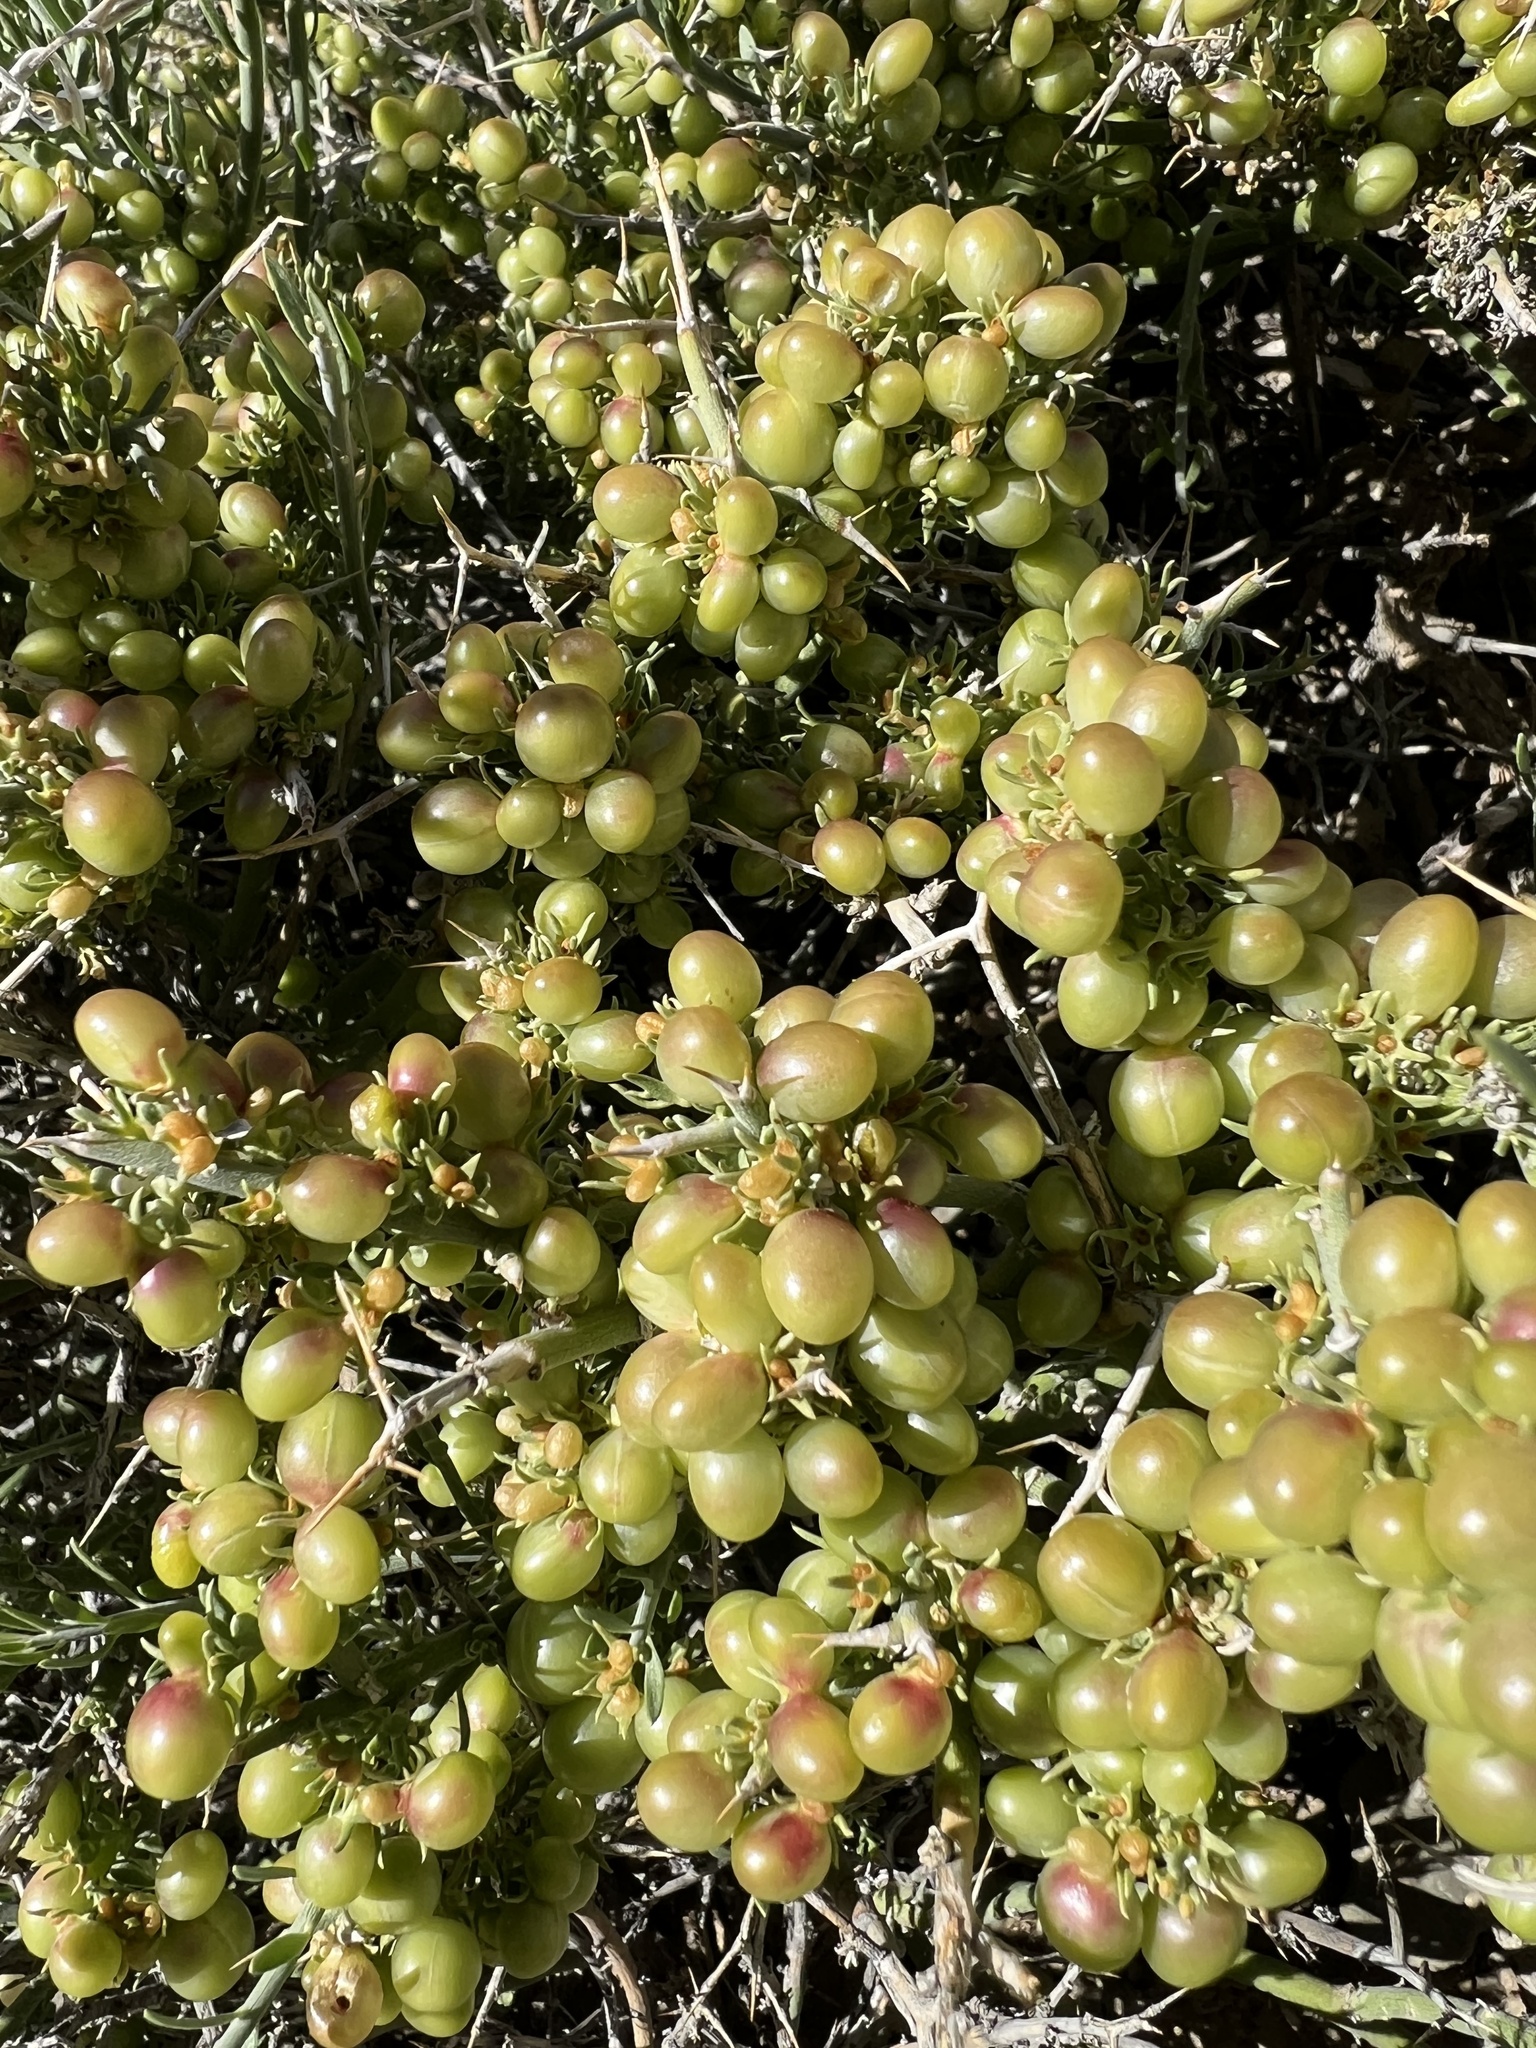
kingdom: Plantae
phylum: Tracheophyta
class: Magnoliopsida
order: Lamiales
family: Oleaceae
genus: Menodora
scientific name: Menodora spinescens
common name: Spiny menodora
